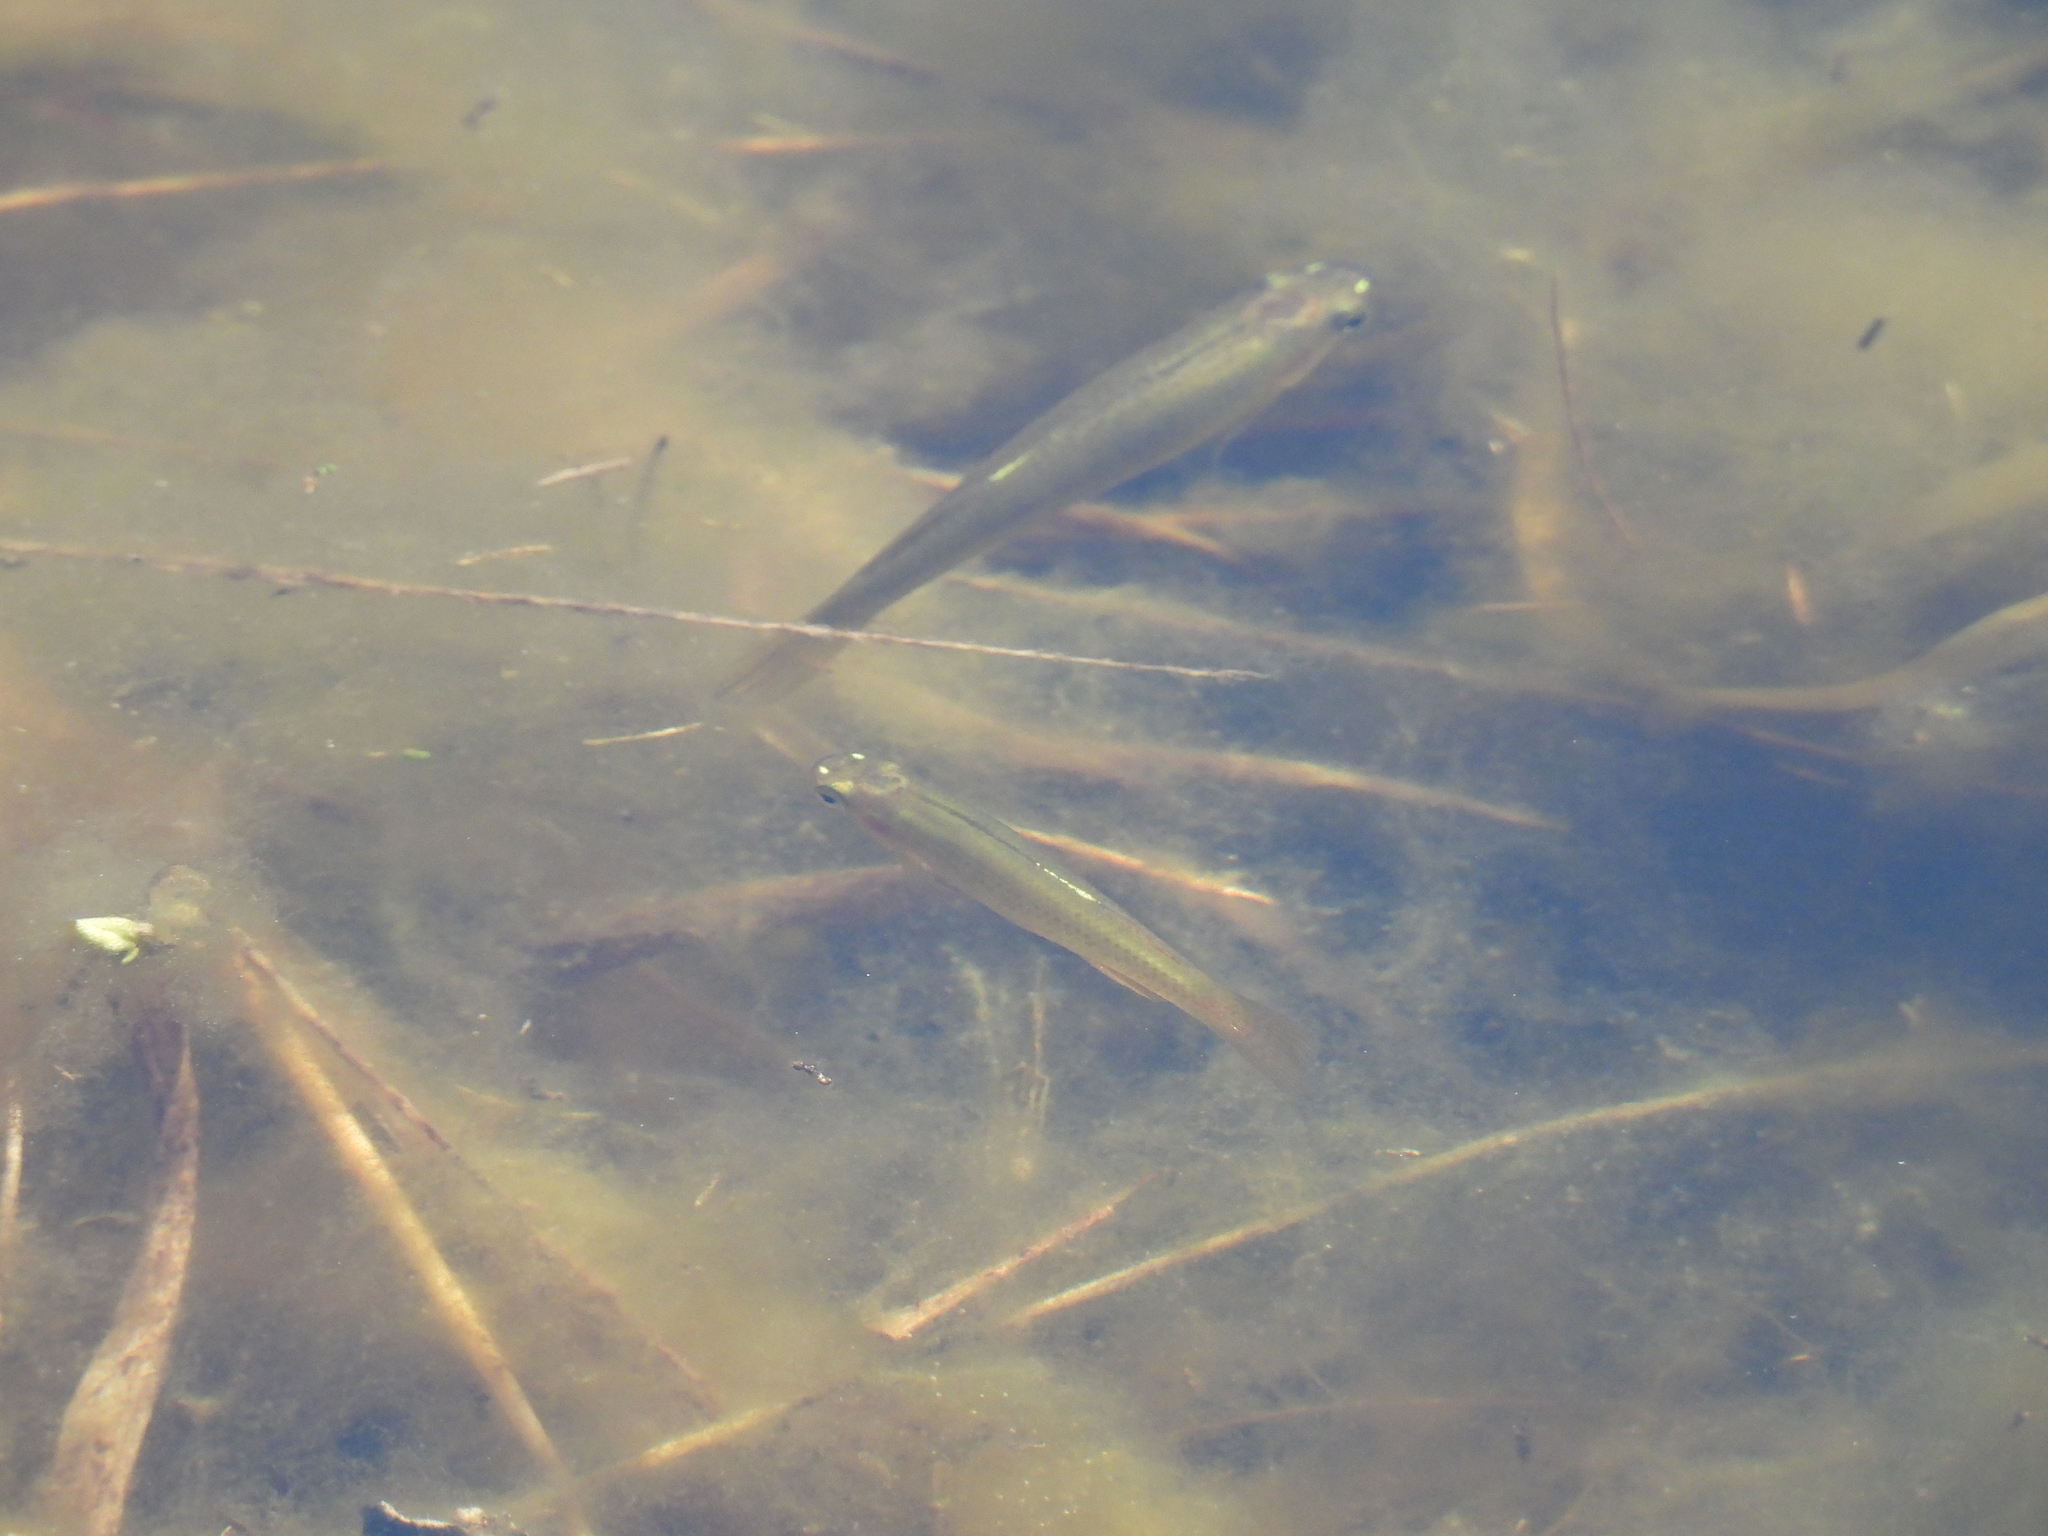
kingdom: Animalia
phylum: Chordata
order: Cyprinodontiformes
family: Fundulidae
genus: Fundulus
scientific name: Fundulus chrysotus
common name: Golden topminnow
